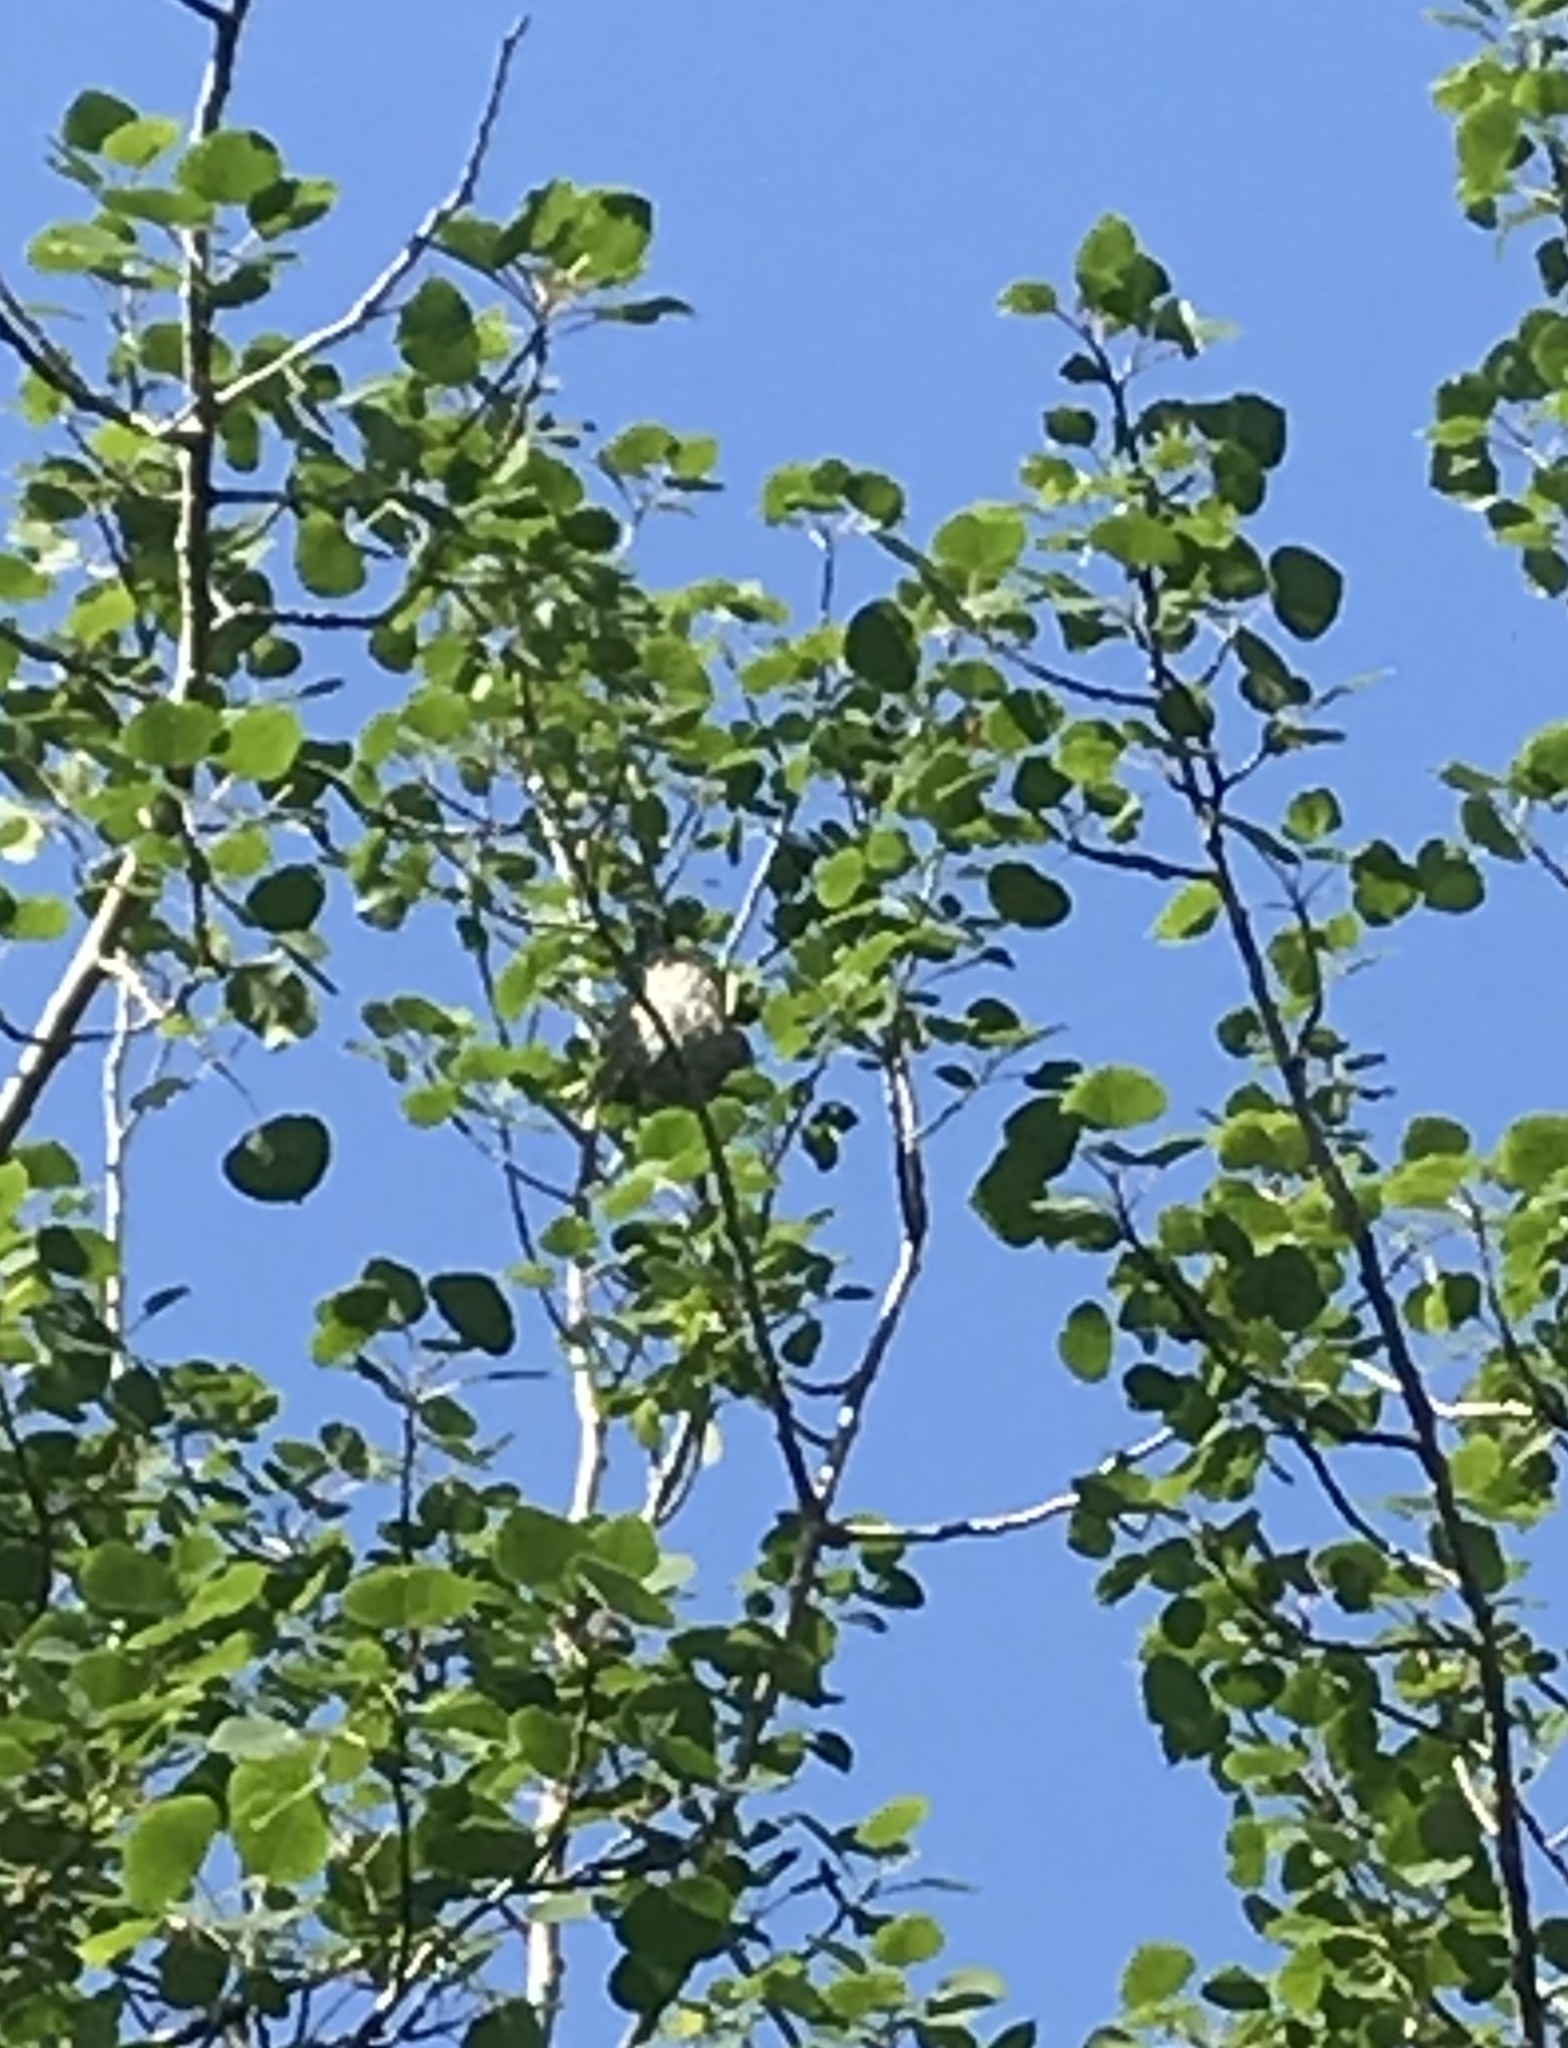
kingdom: Animalia
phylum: Chordata
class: Aves
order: Passeriformes
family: Icteridae
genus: Icterus
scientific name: Icterus galbula
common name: Baltimore oriole
